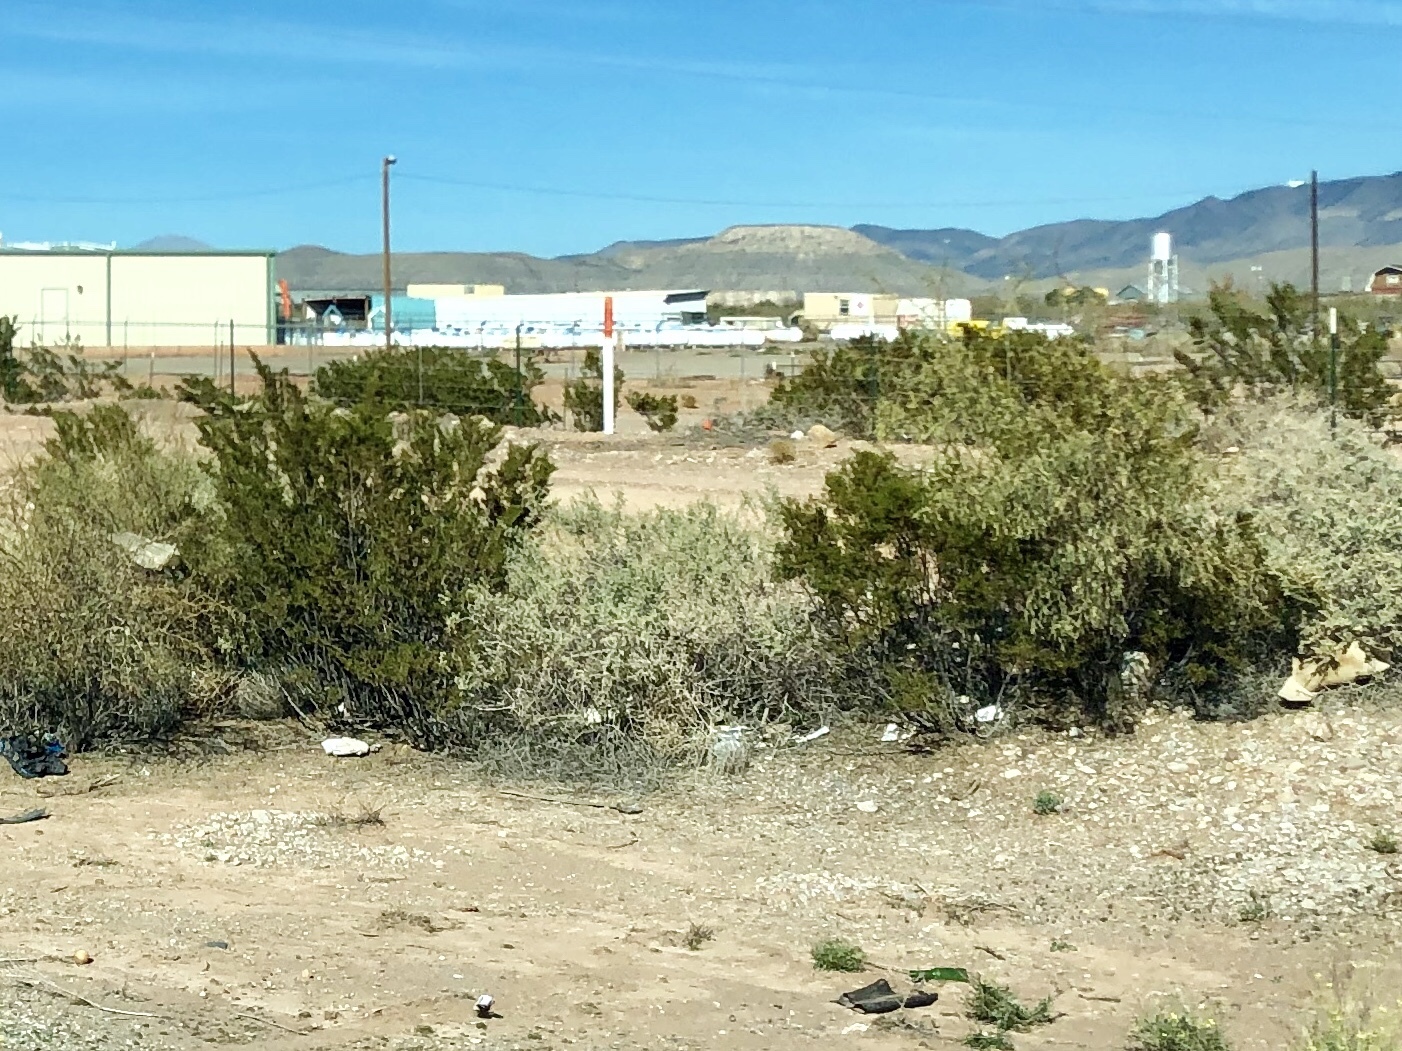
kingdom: Plantae
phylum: Tracheophyta
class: Magnoliopsida
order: Zygophyllales
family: Zygophyllaceae
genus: Larrea
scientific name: Larrea tridentata
